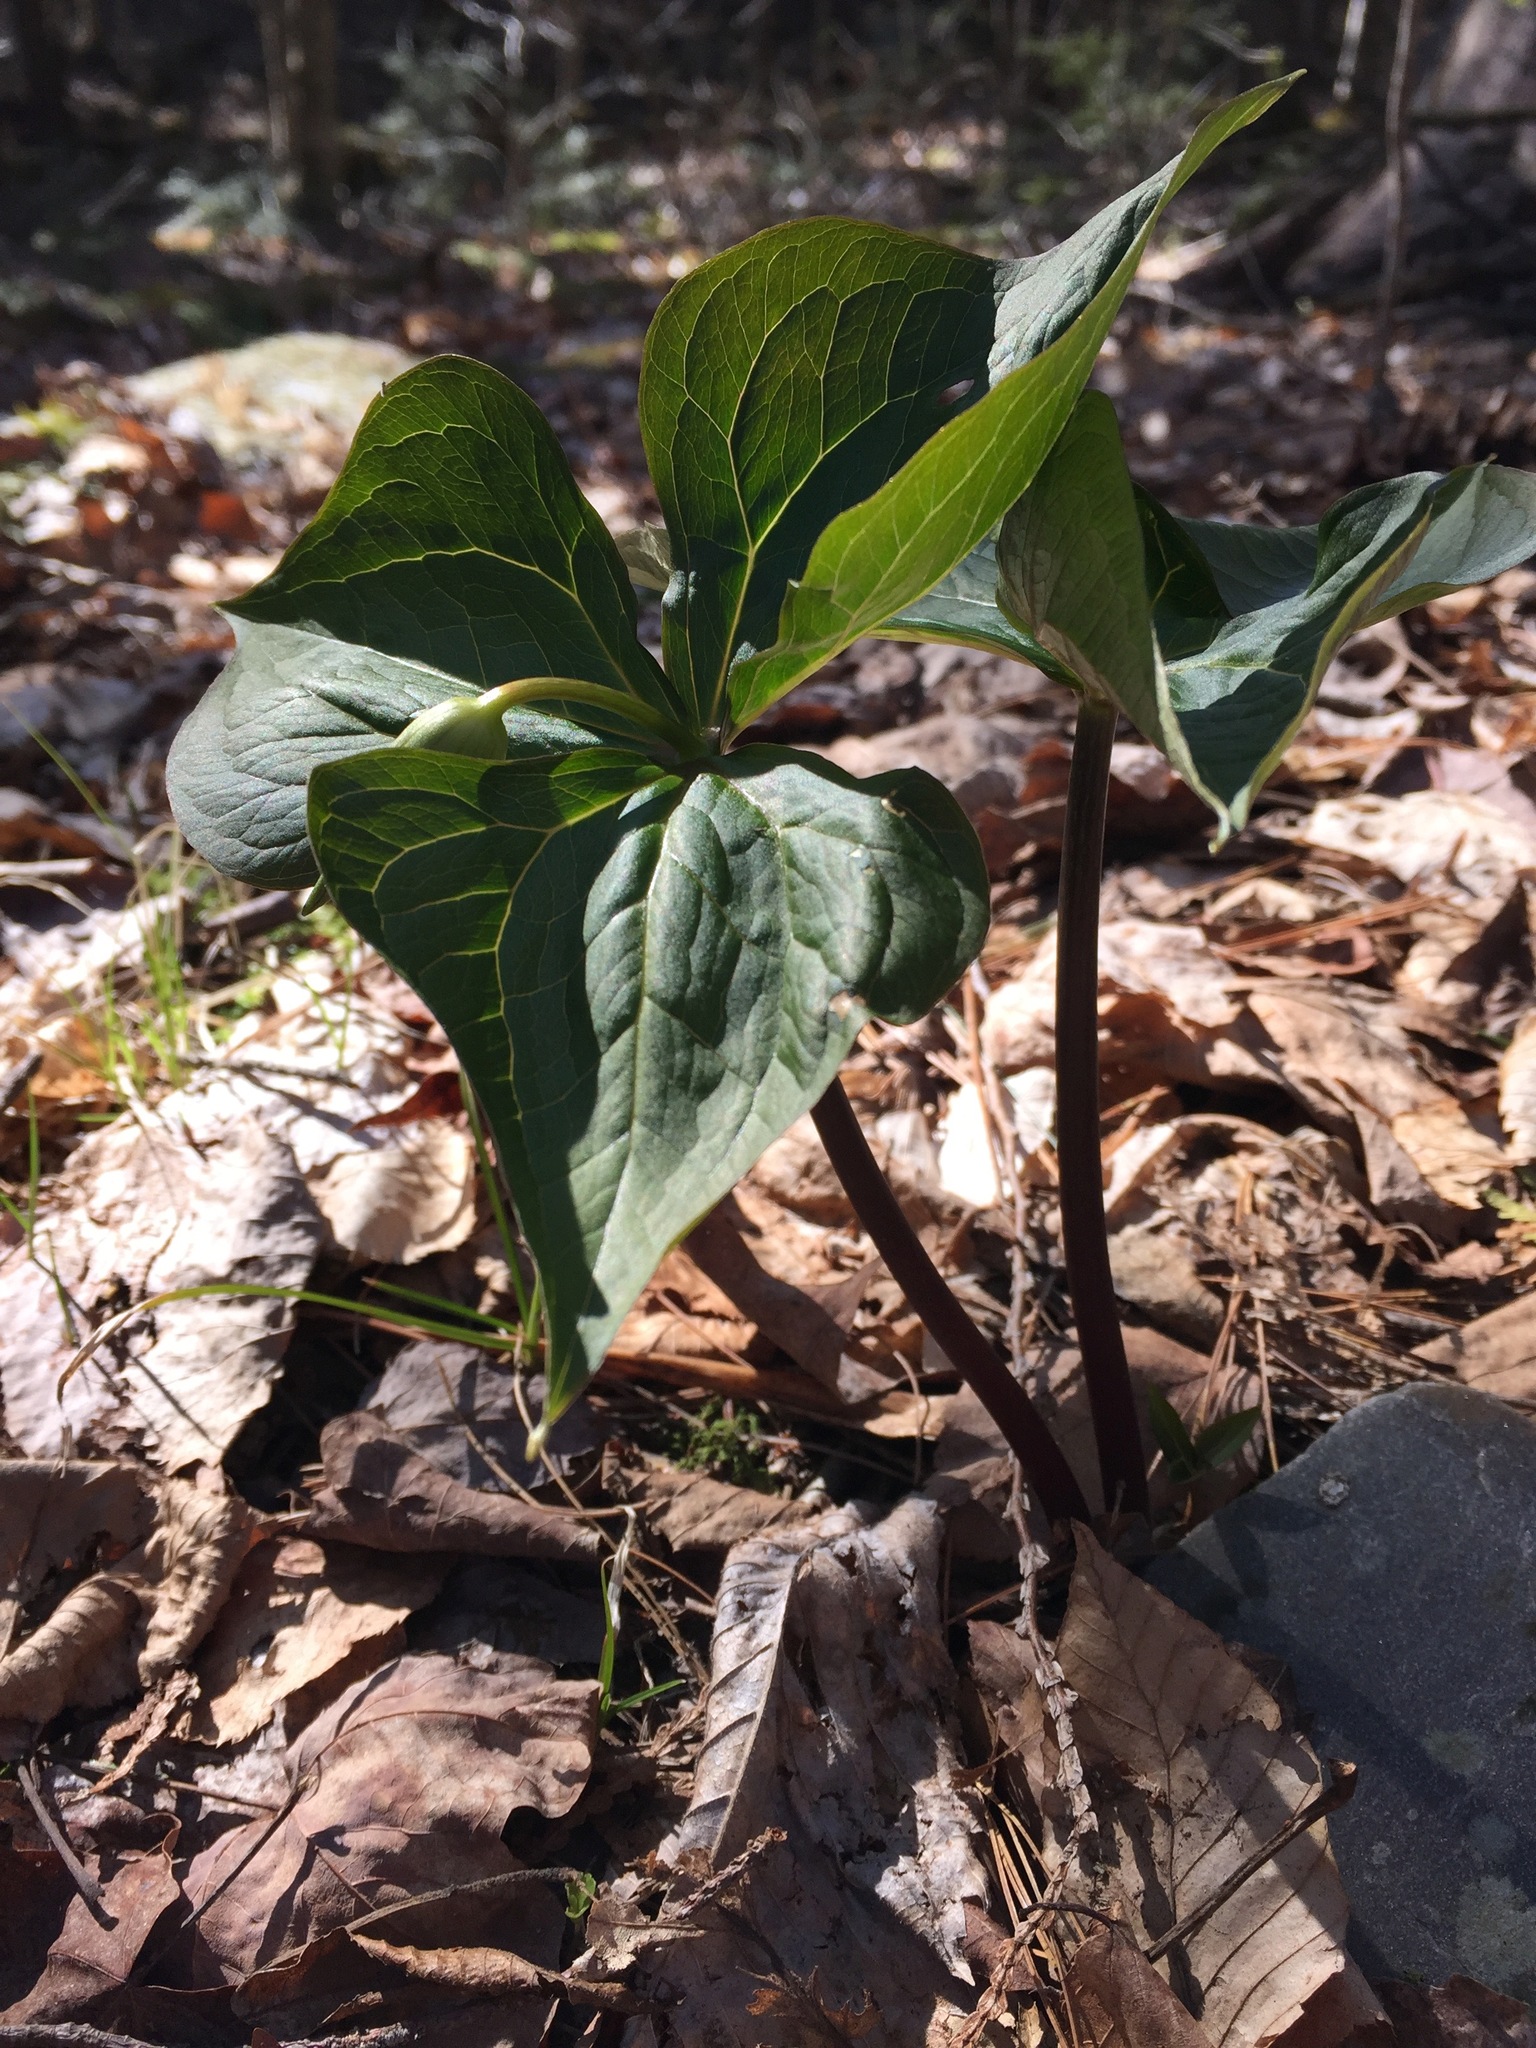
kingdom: Plantae
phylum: Tracheophyta
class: Liliopsida
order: Liliales
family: Melanthiaceae
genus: Trillium
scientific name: Trillium erectum
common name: Purple trillium
